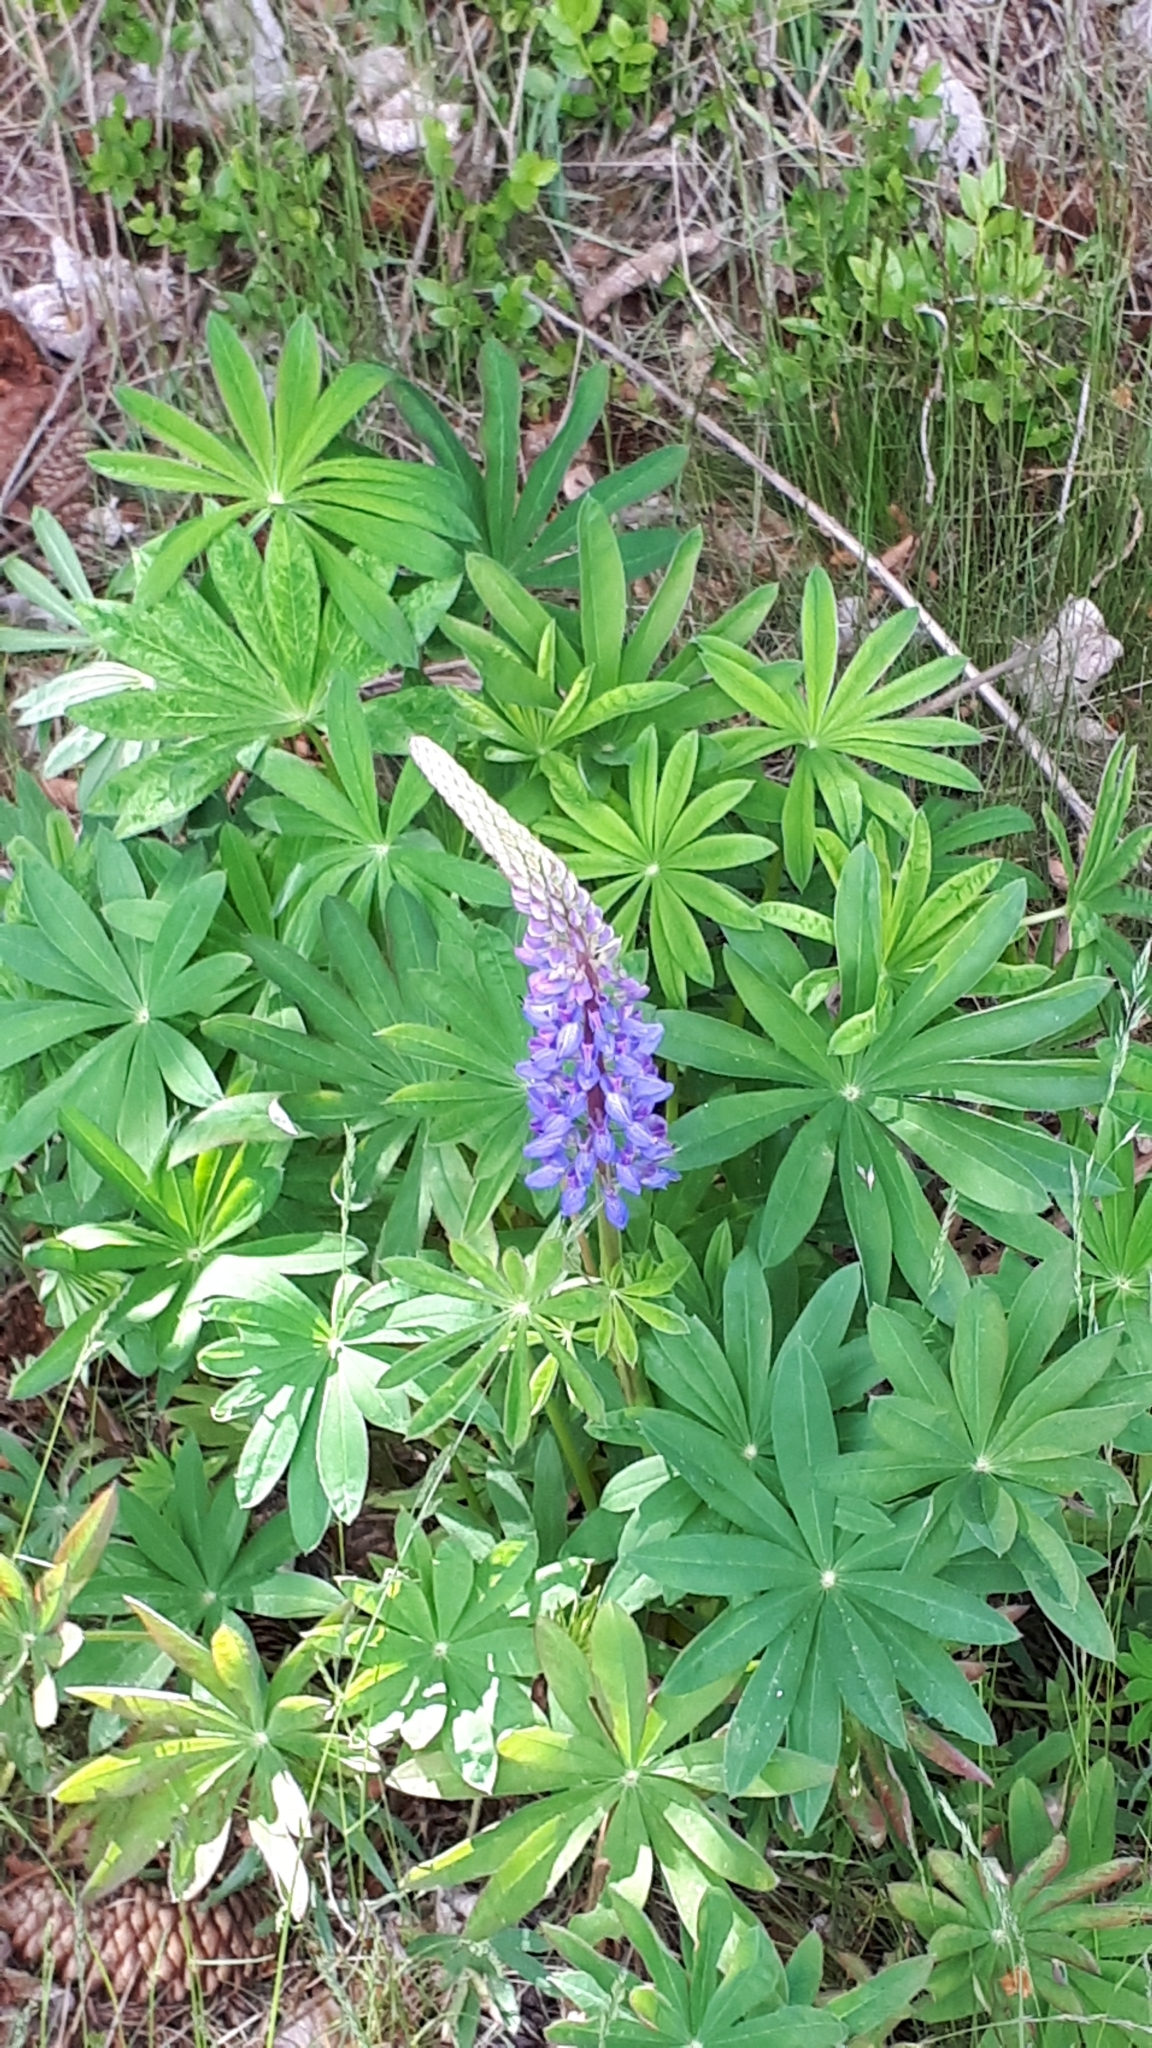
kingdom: Plantae
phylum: Tracheophyta
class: Magnoliopsida
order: Fabales
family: Fabaceae
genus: Lupinus
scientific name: Lupinus polyphyllus
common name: Garden lupin
